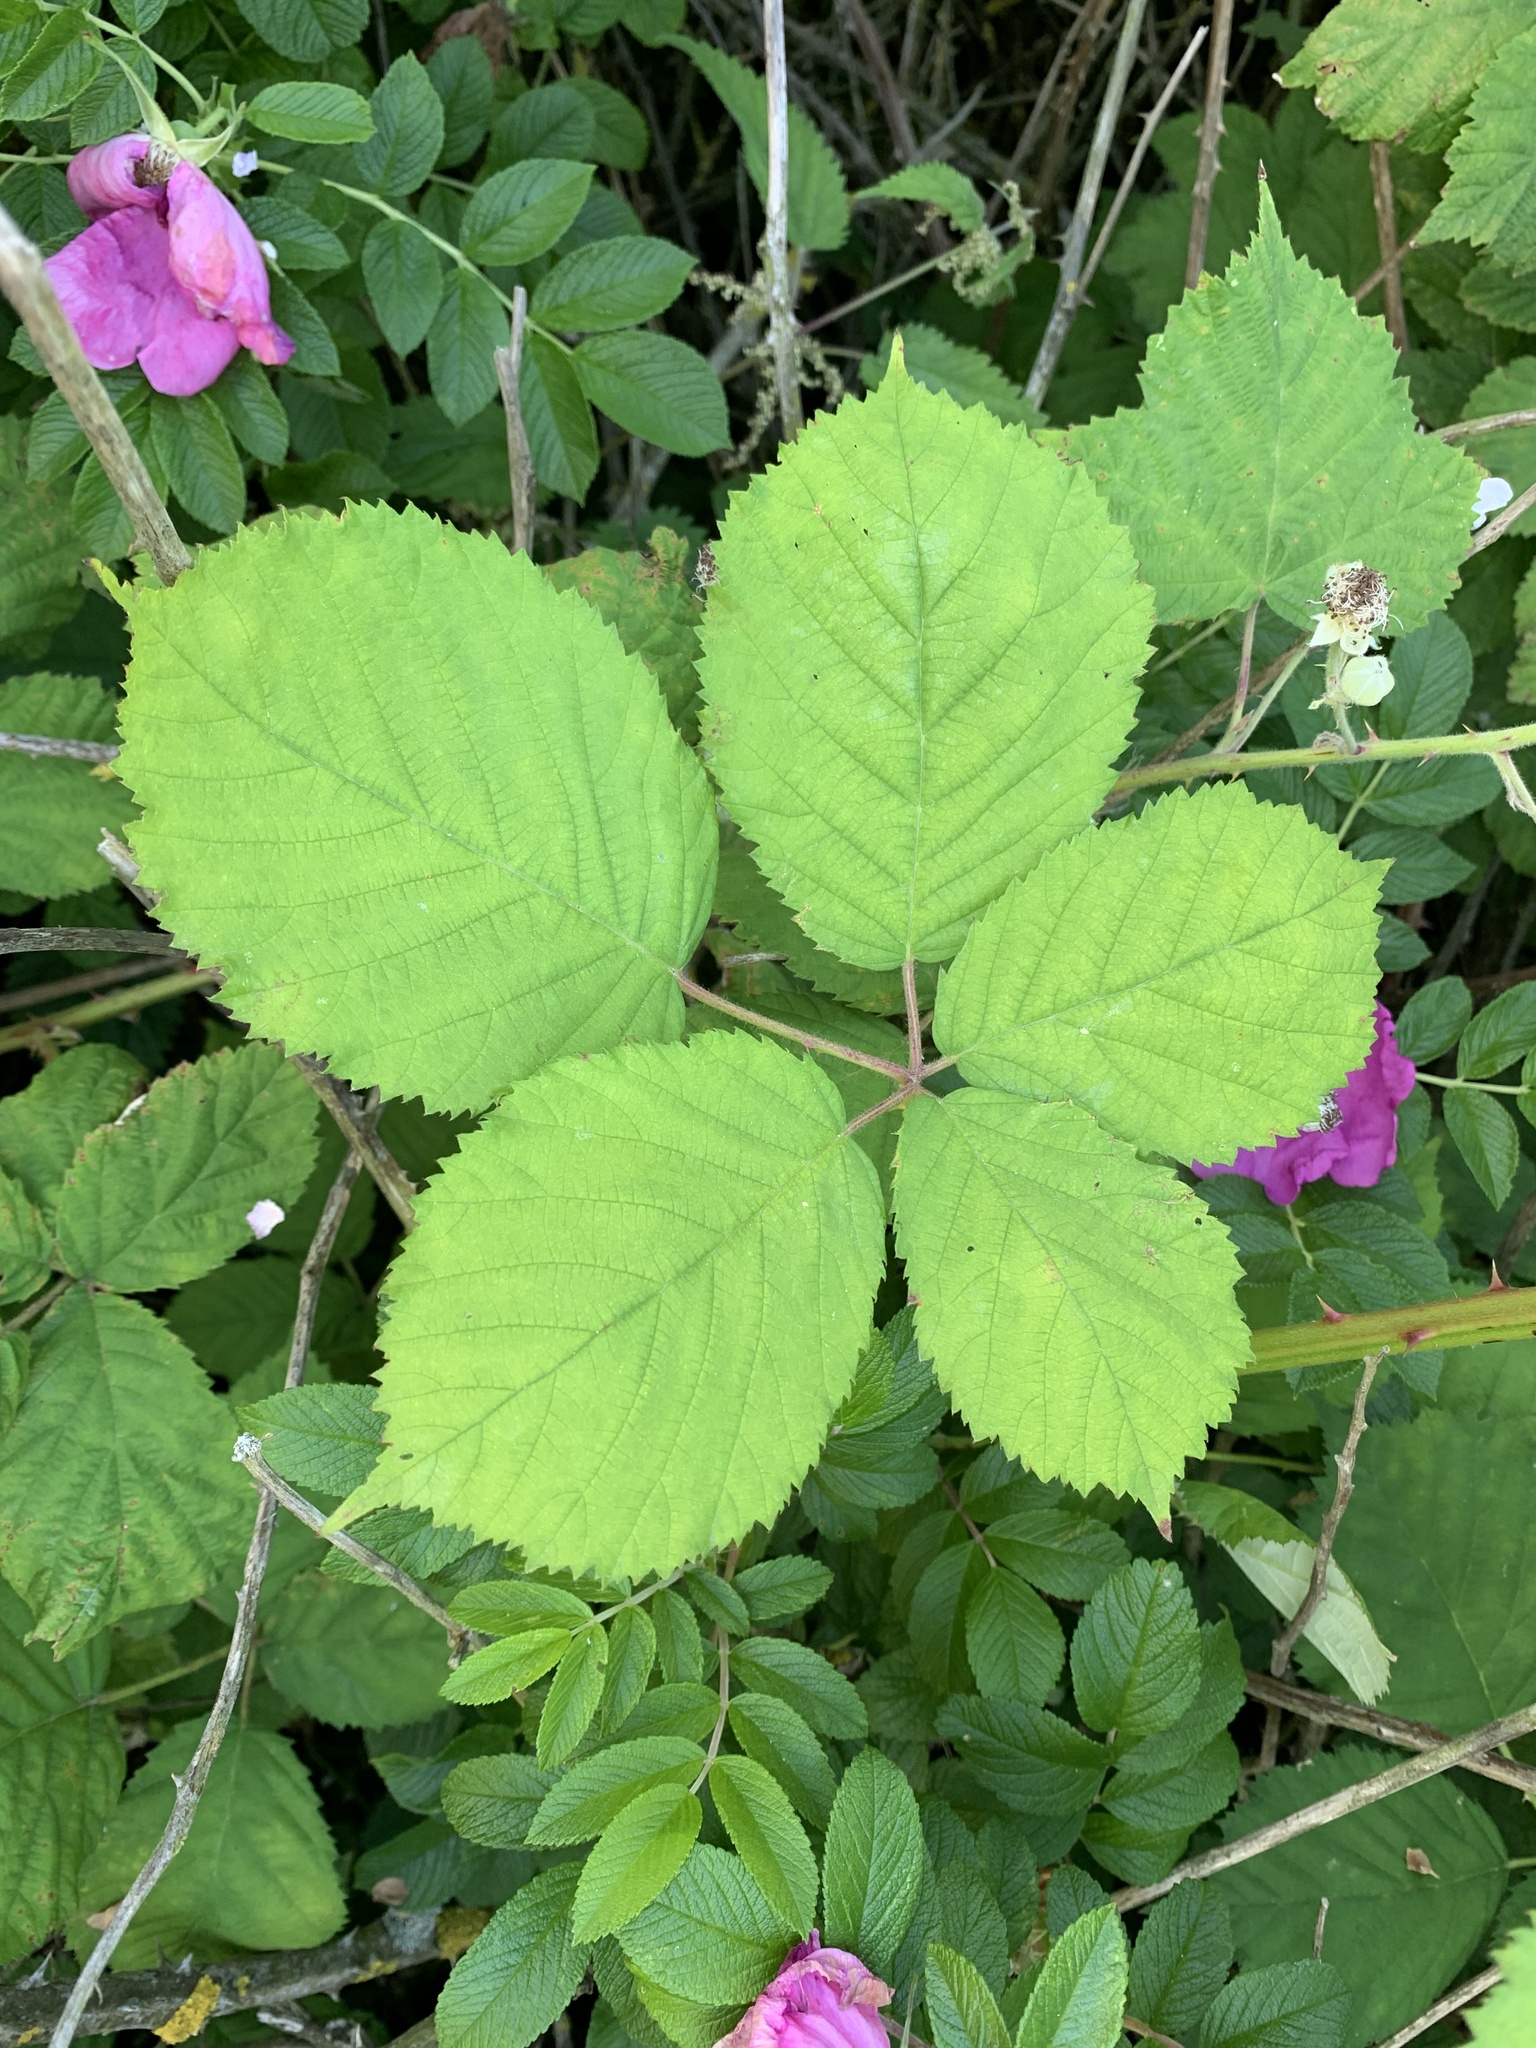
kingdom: Plantae
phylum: Tracheophyta
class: Magnoliopsida
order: Rosales
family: Rosaceae
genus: Rubus
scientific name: Rubus
